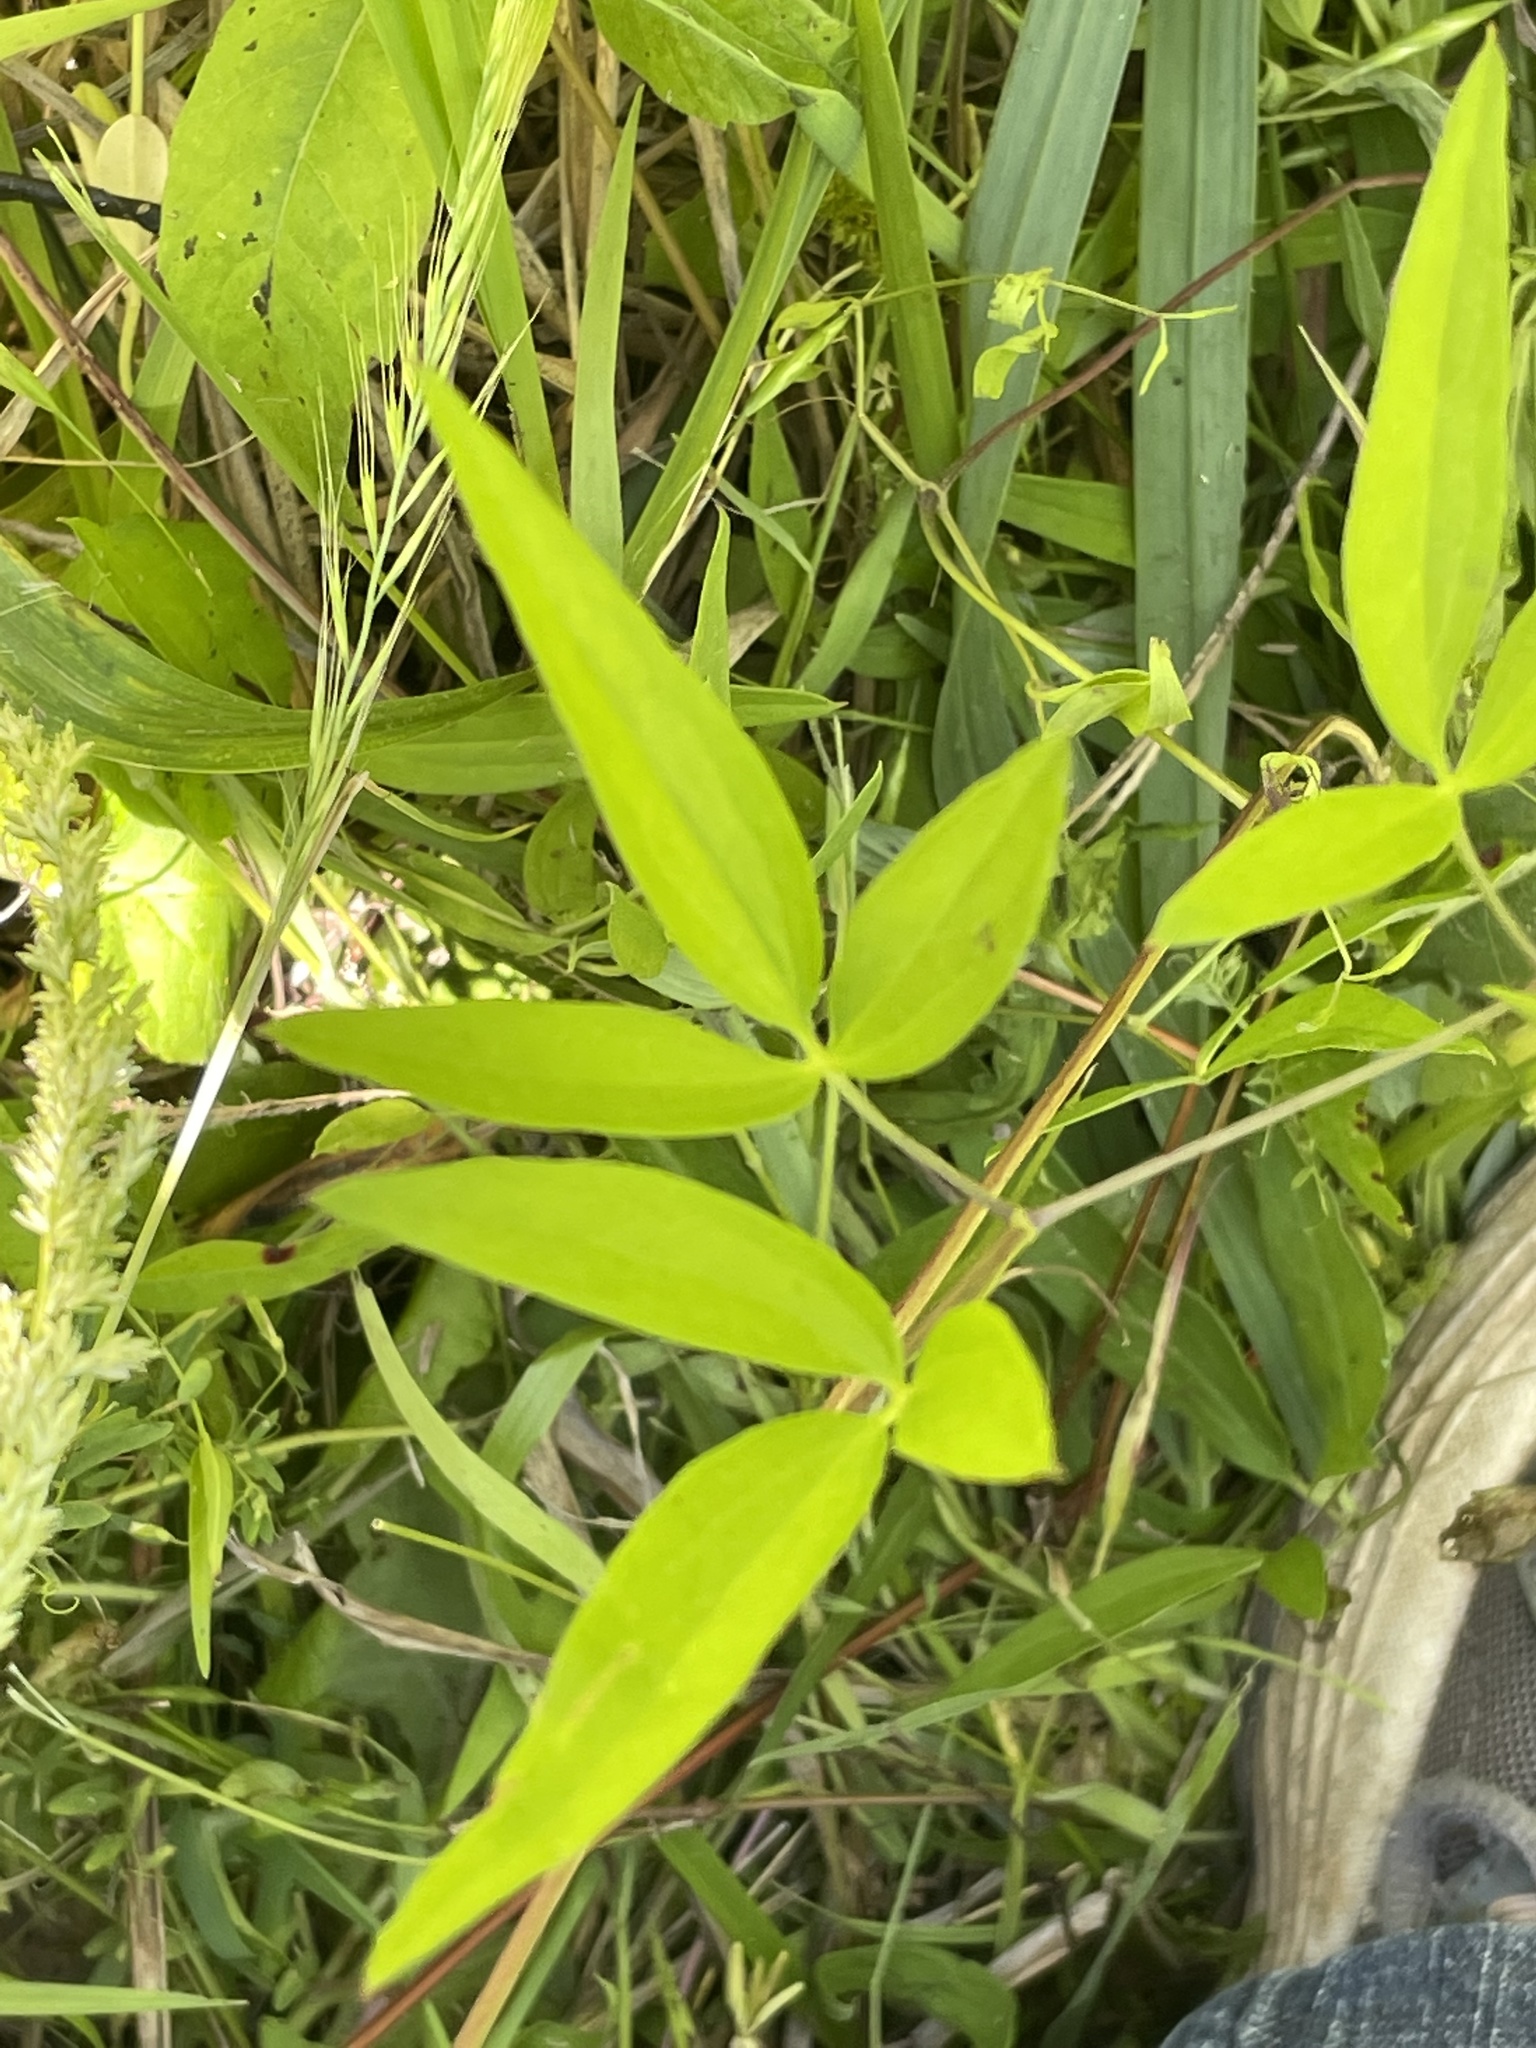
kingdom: Plantae
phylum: Tracheophyta
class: Magnoliopsida
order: Ranunculales
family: Ranunculaceae
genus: Clematis
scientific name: Clematis crispa
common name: Curly clematis
